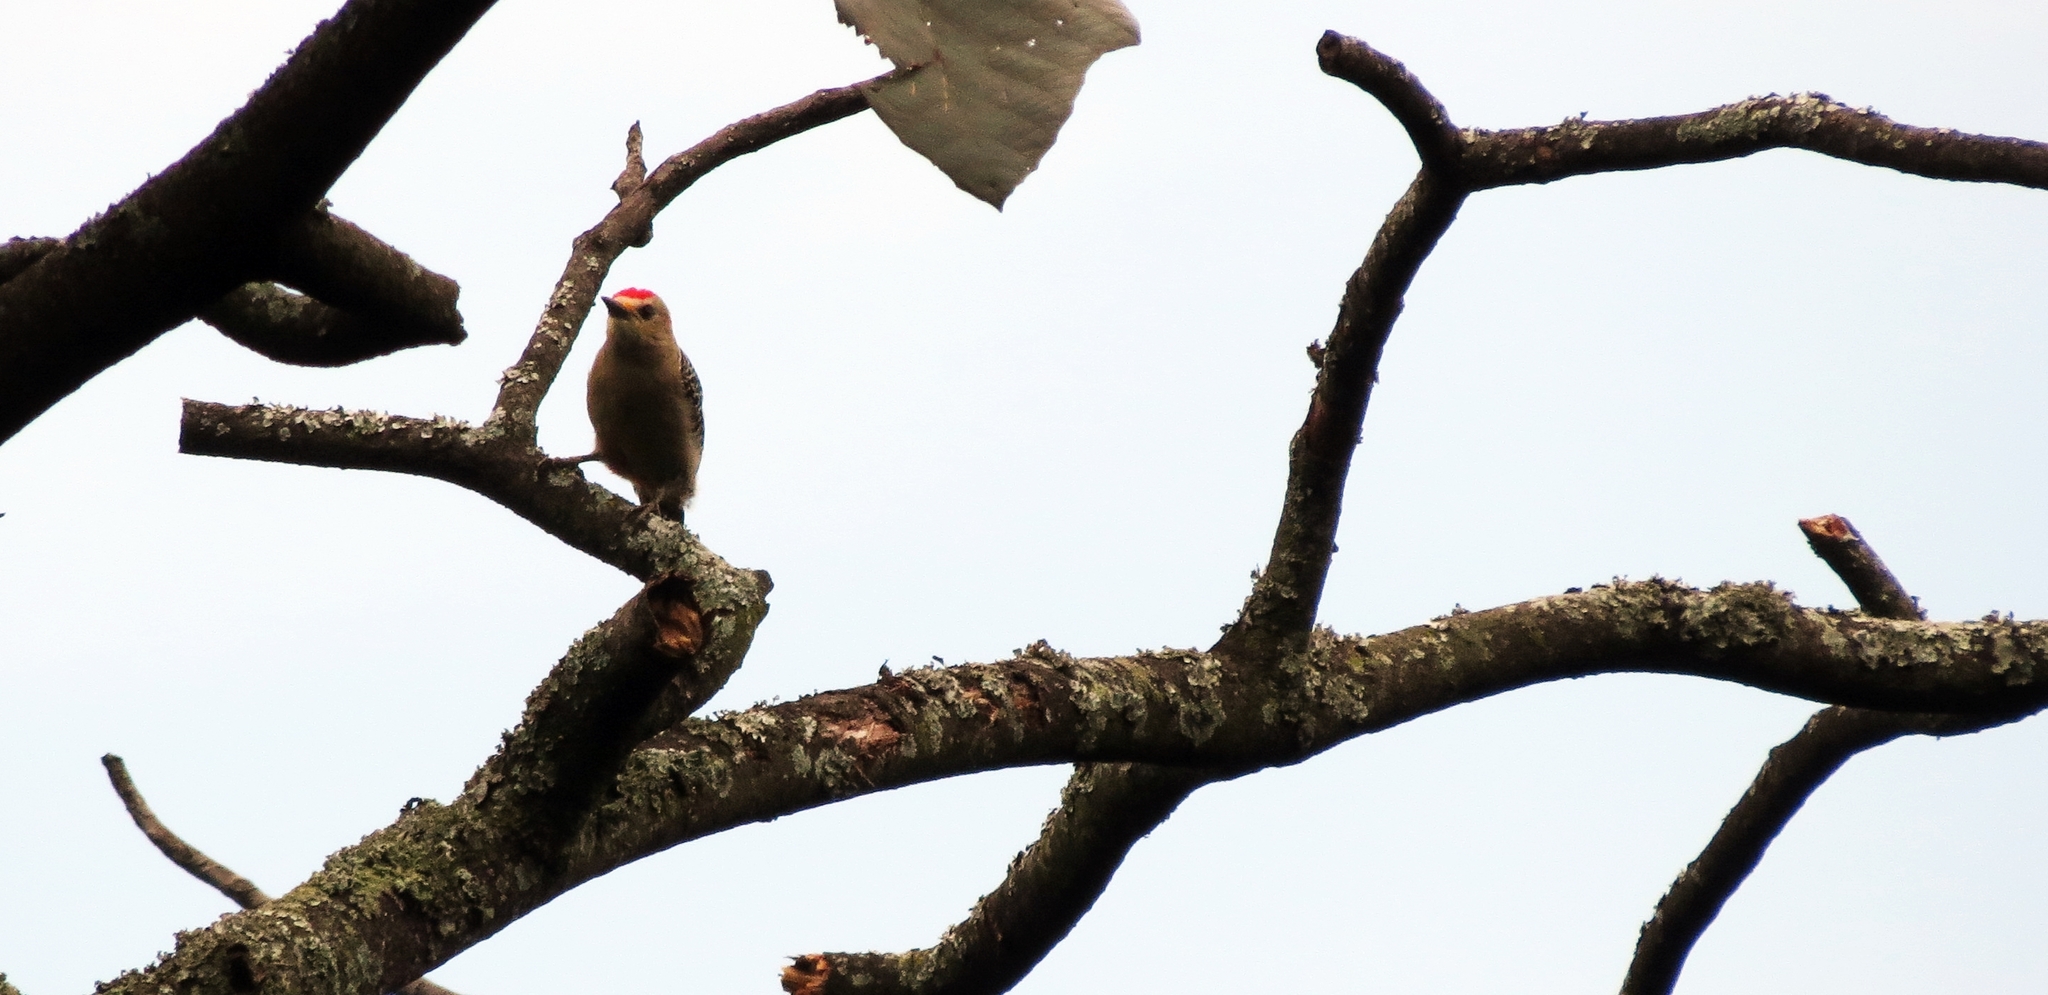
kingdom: Animalia
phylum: Chordata
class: Aves
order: Piciformes
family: Picidae
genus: Melanerpes
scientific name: Melanerpes rubricapillus
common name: Red-crowned woodpecker
